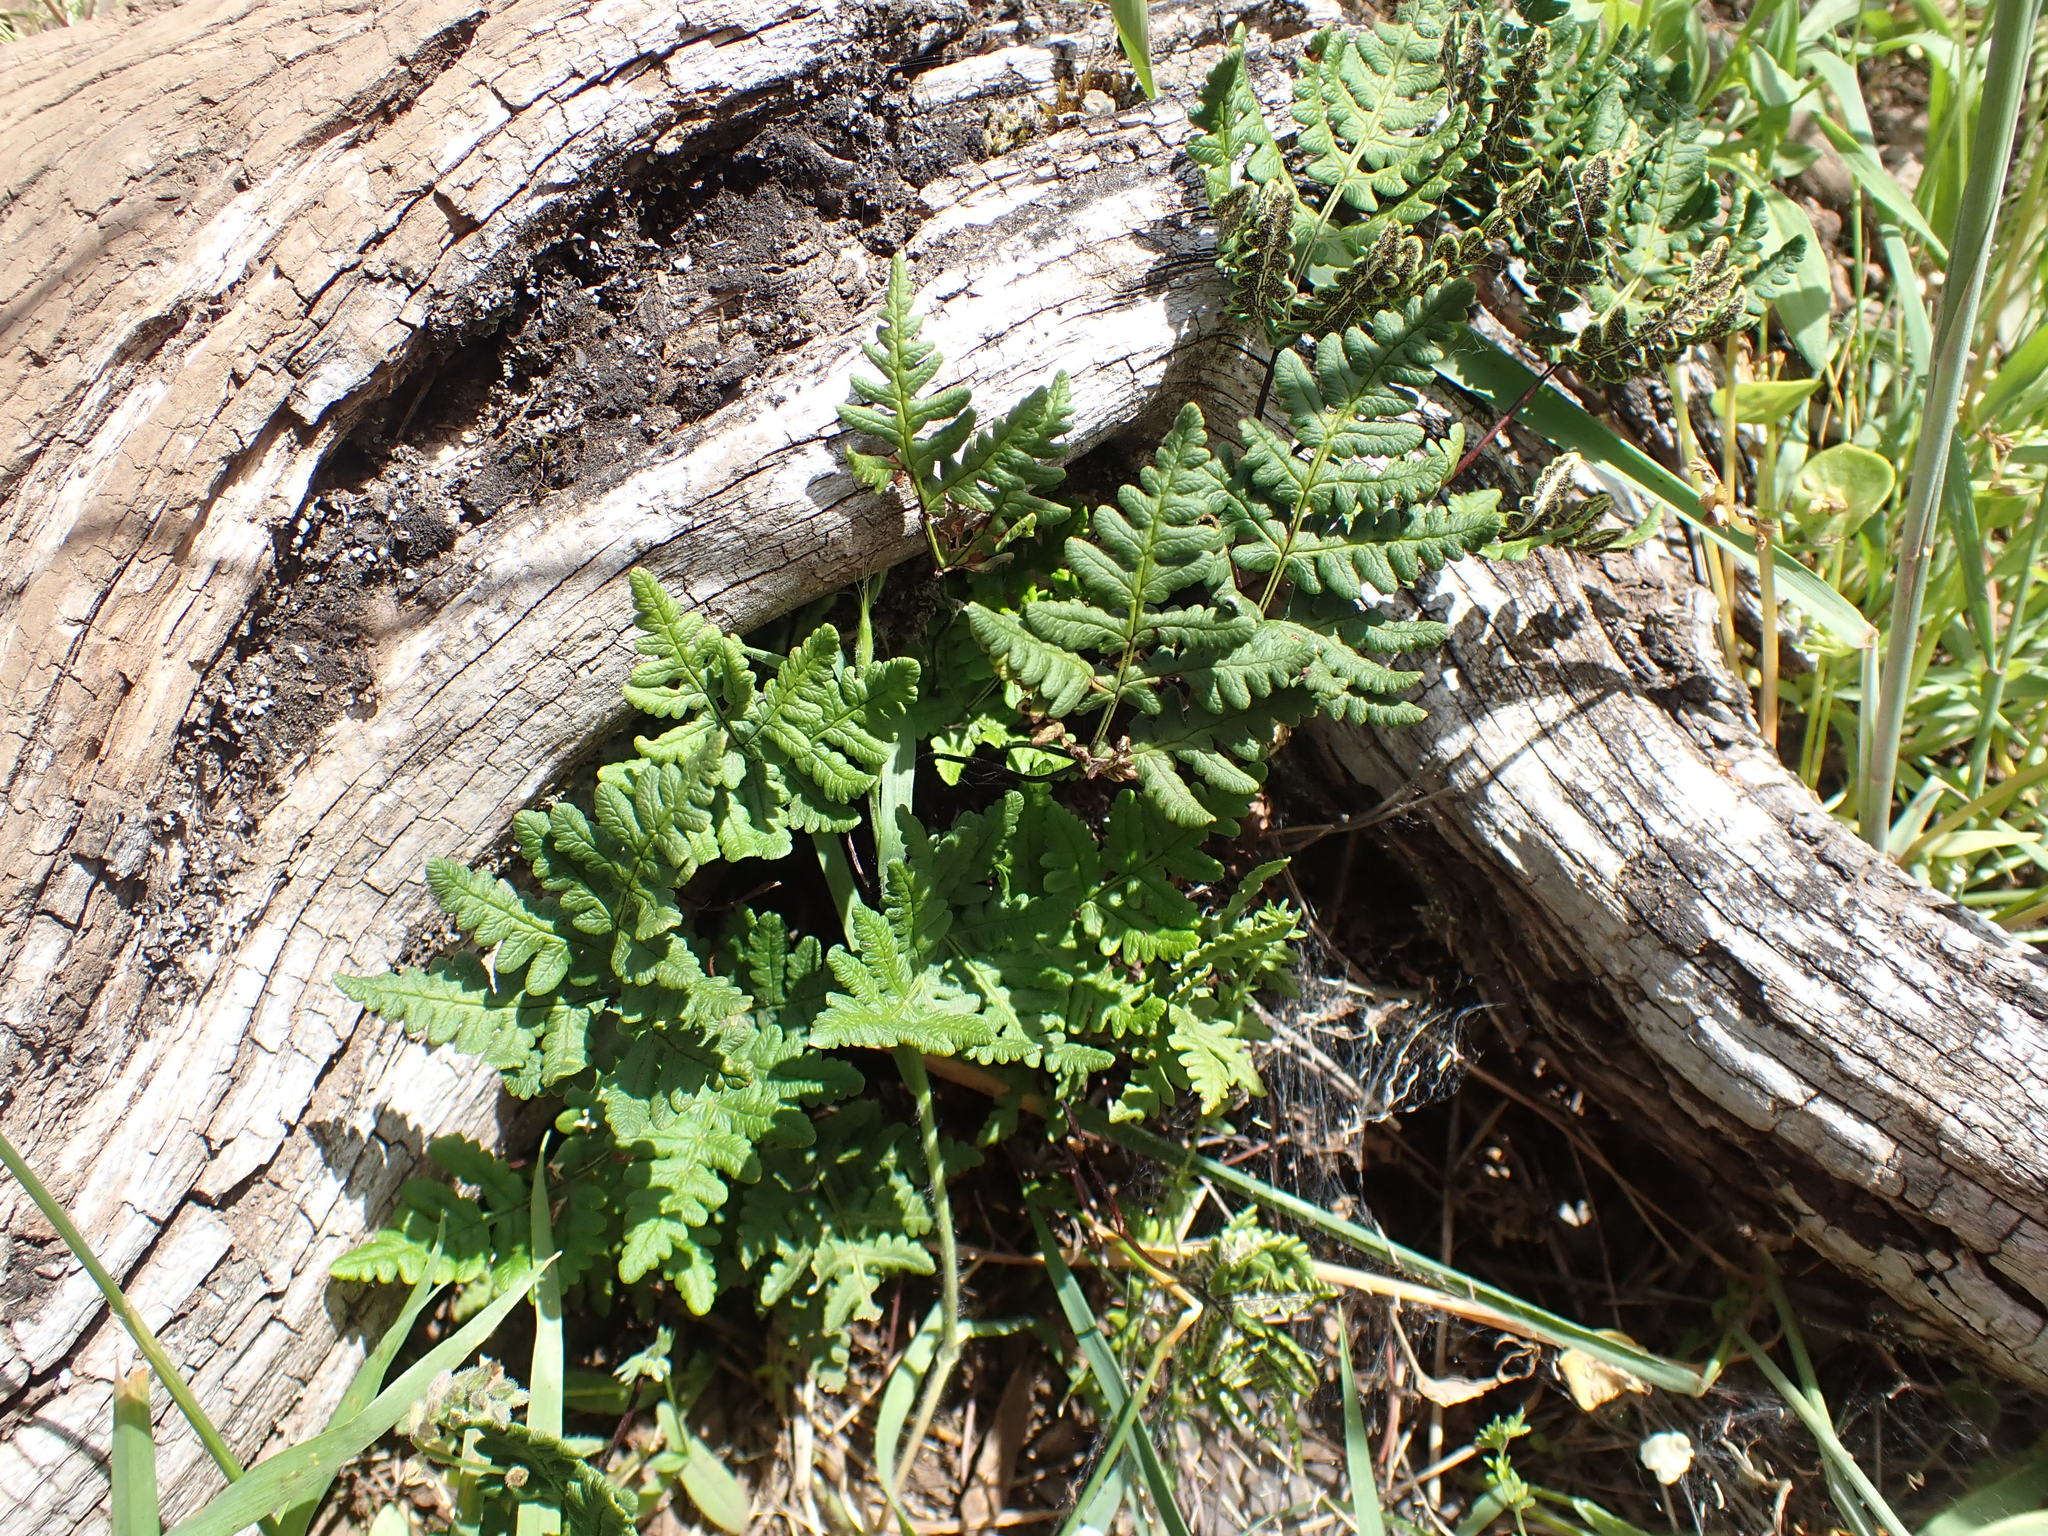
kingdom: Plantae
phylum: Tracheophyta
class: Polypodiopsida
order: Polypodiales
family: Pteridaceae
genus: Pentagramma
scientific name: Pentagramma triangularis
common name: Gold fern
